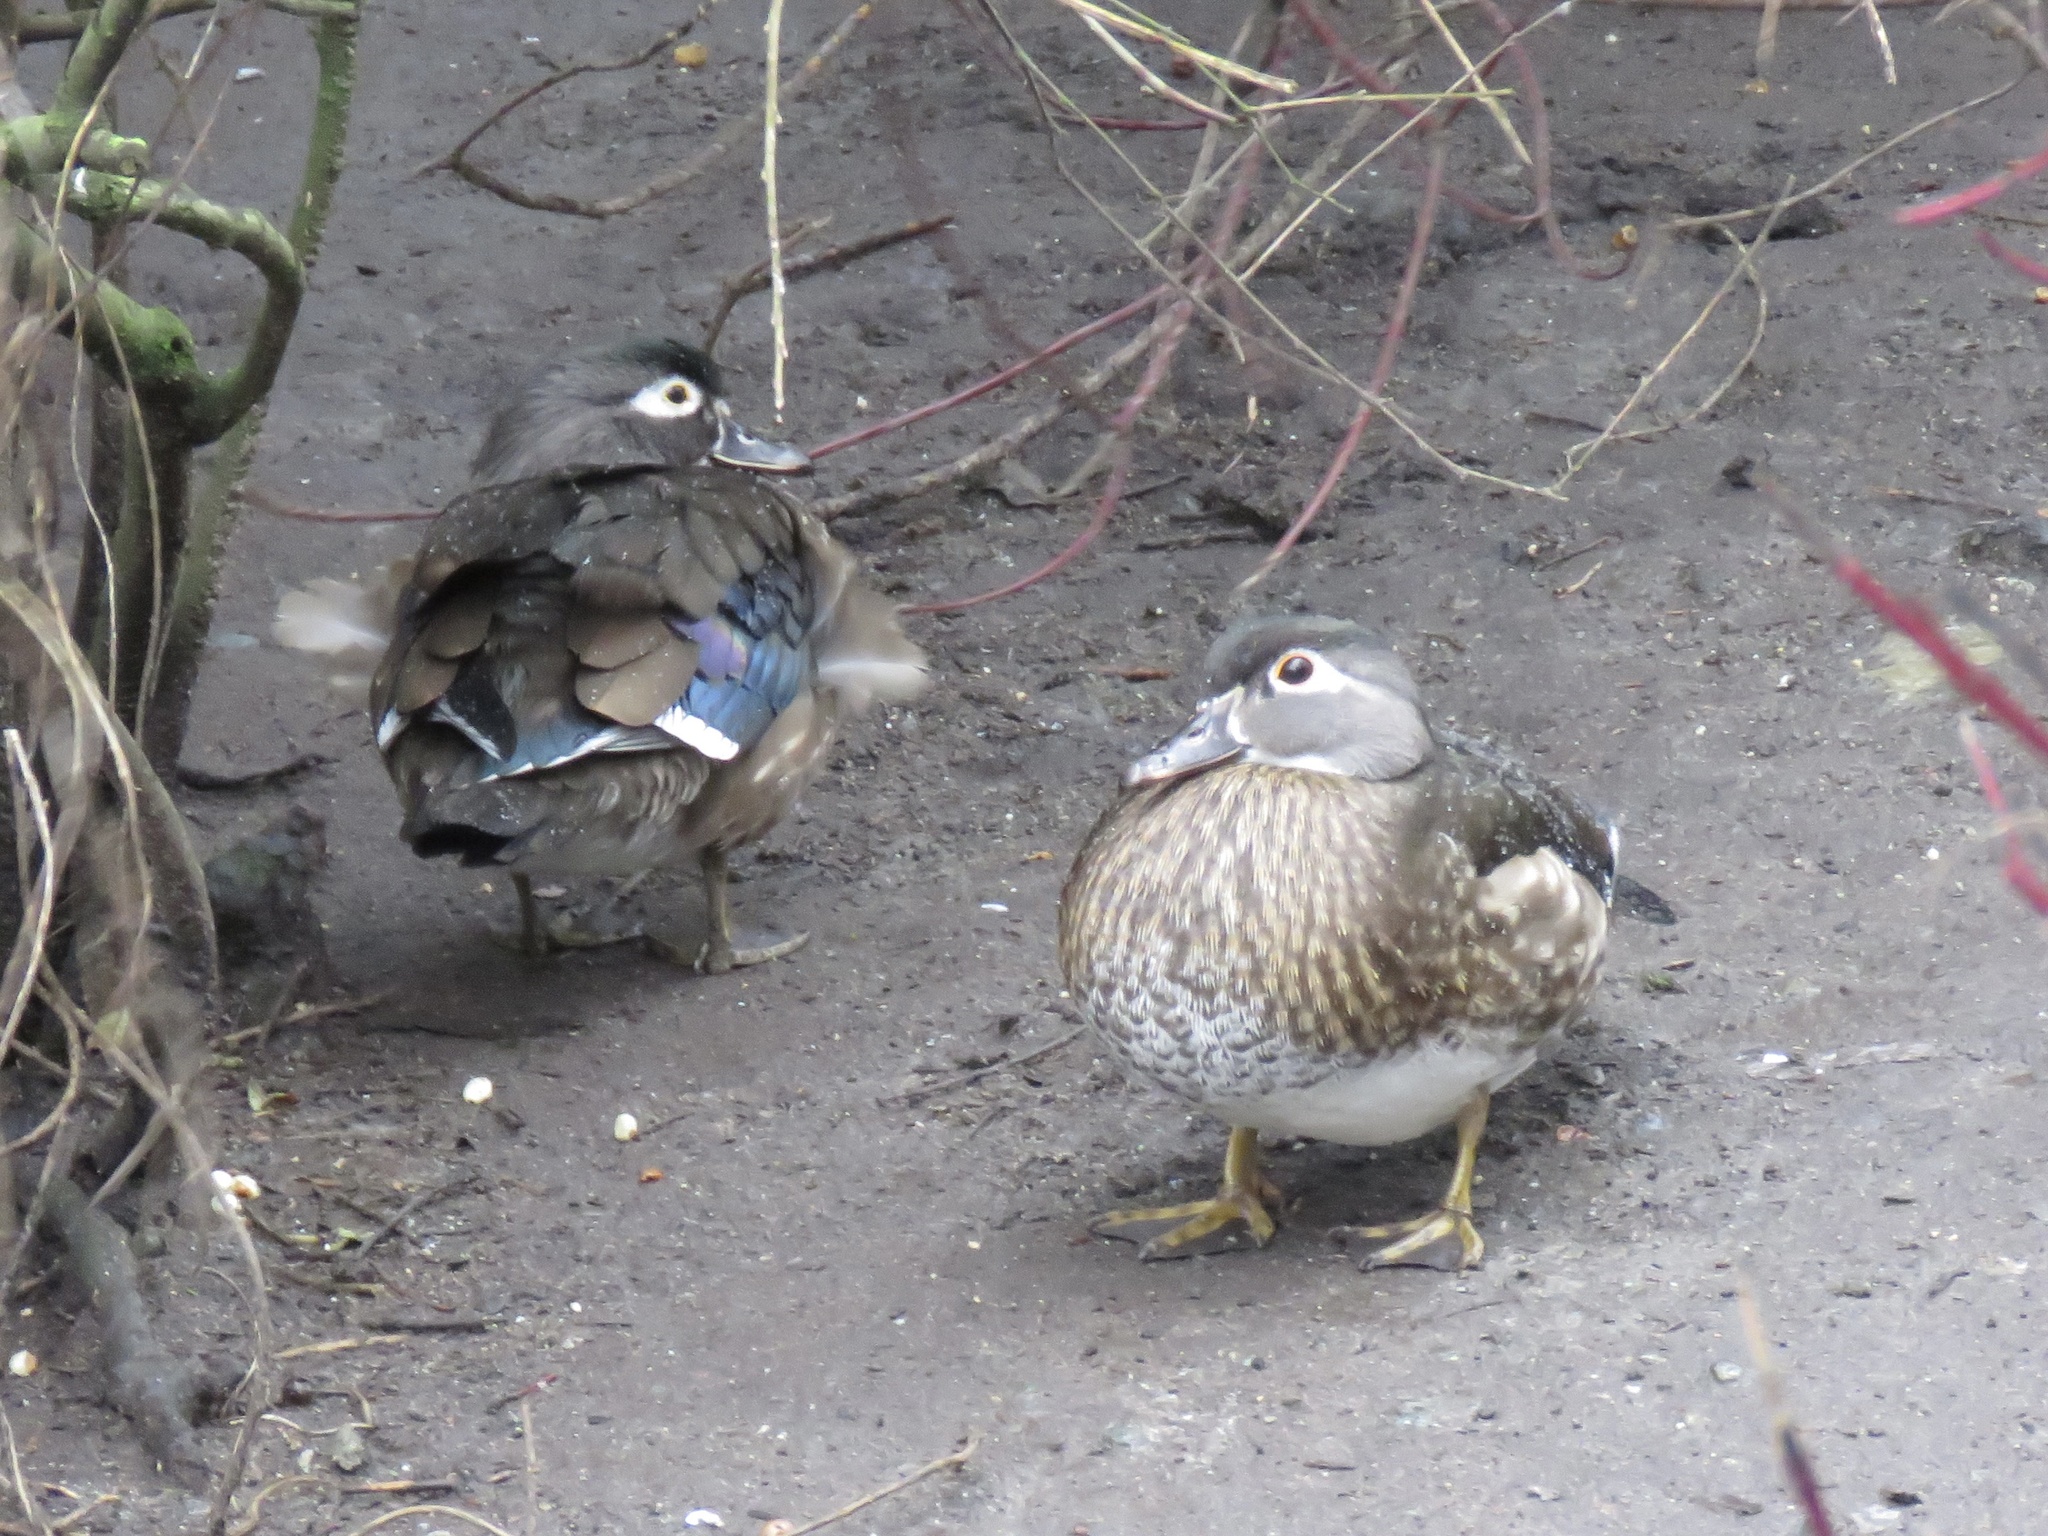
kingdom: Animalia
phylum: Chordata
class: Aves
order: Anseriformes
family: Anatidae
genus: Aix
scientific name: Aix sponsa
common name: Wood duck
